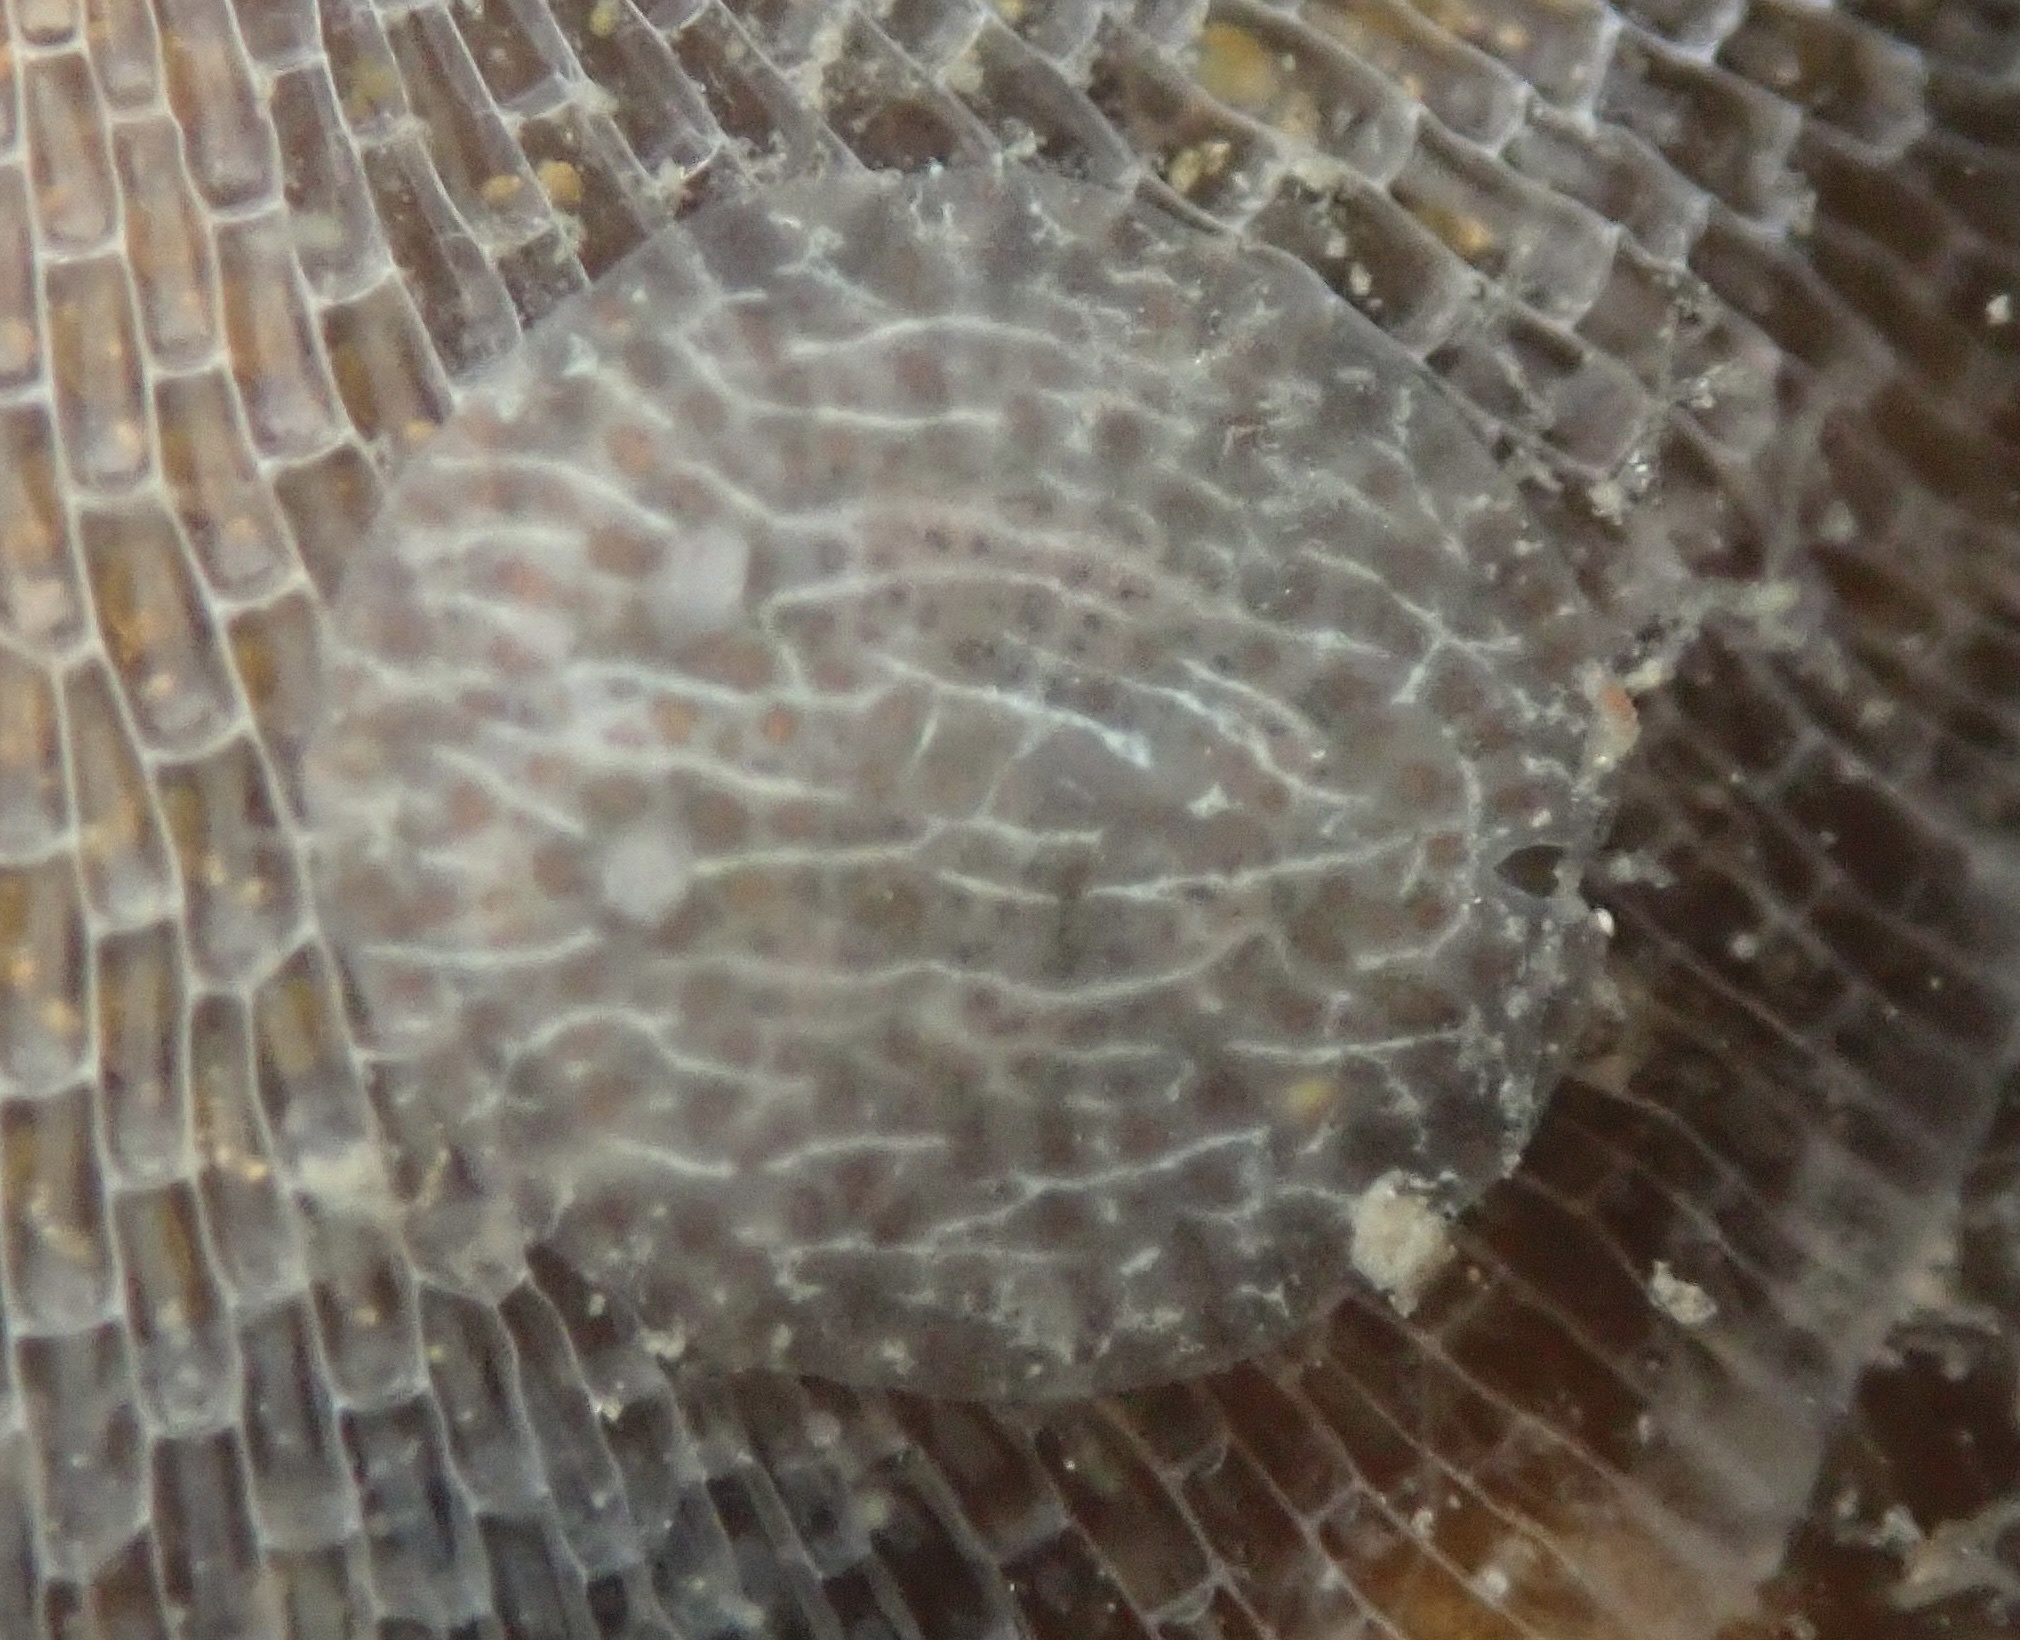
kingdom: Animalia
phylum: Mollusca
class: Gastropoda
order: Nudibranchia
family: Corambidae
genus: Corambe
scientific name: Corambe pacifica
